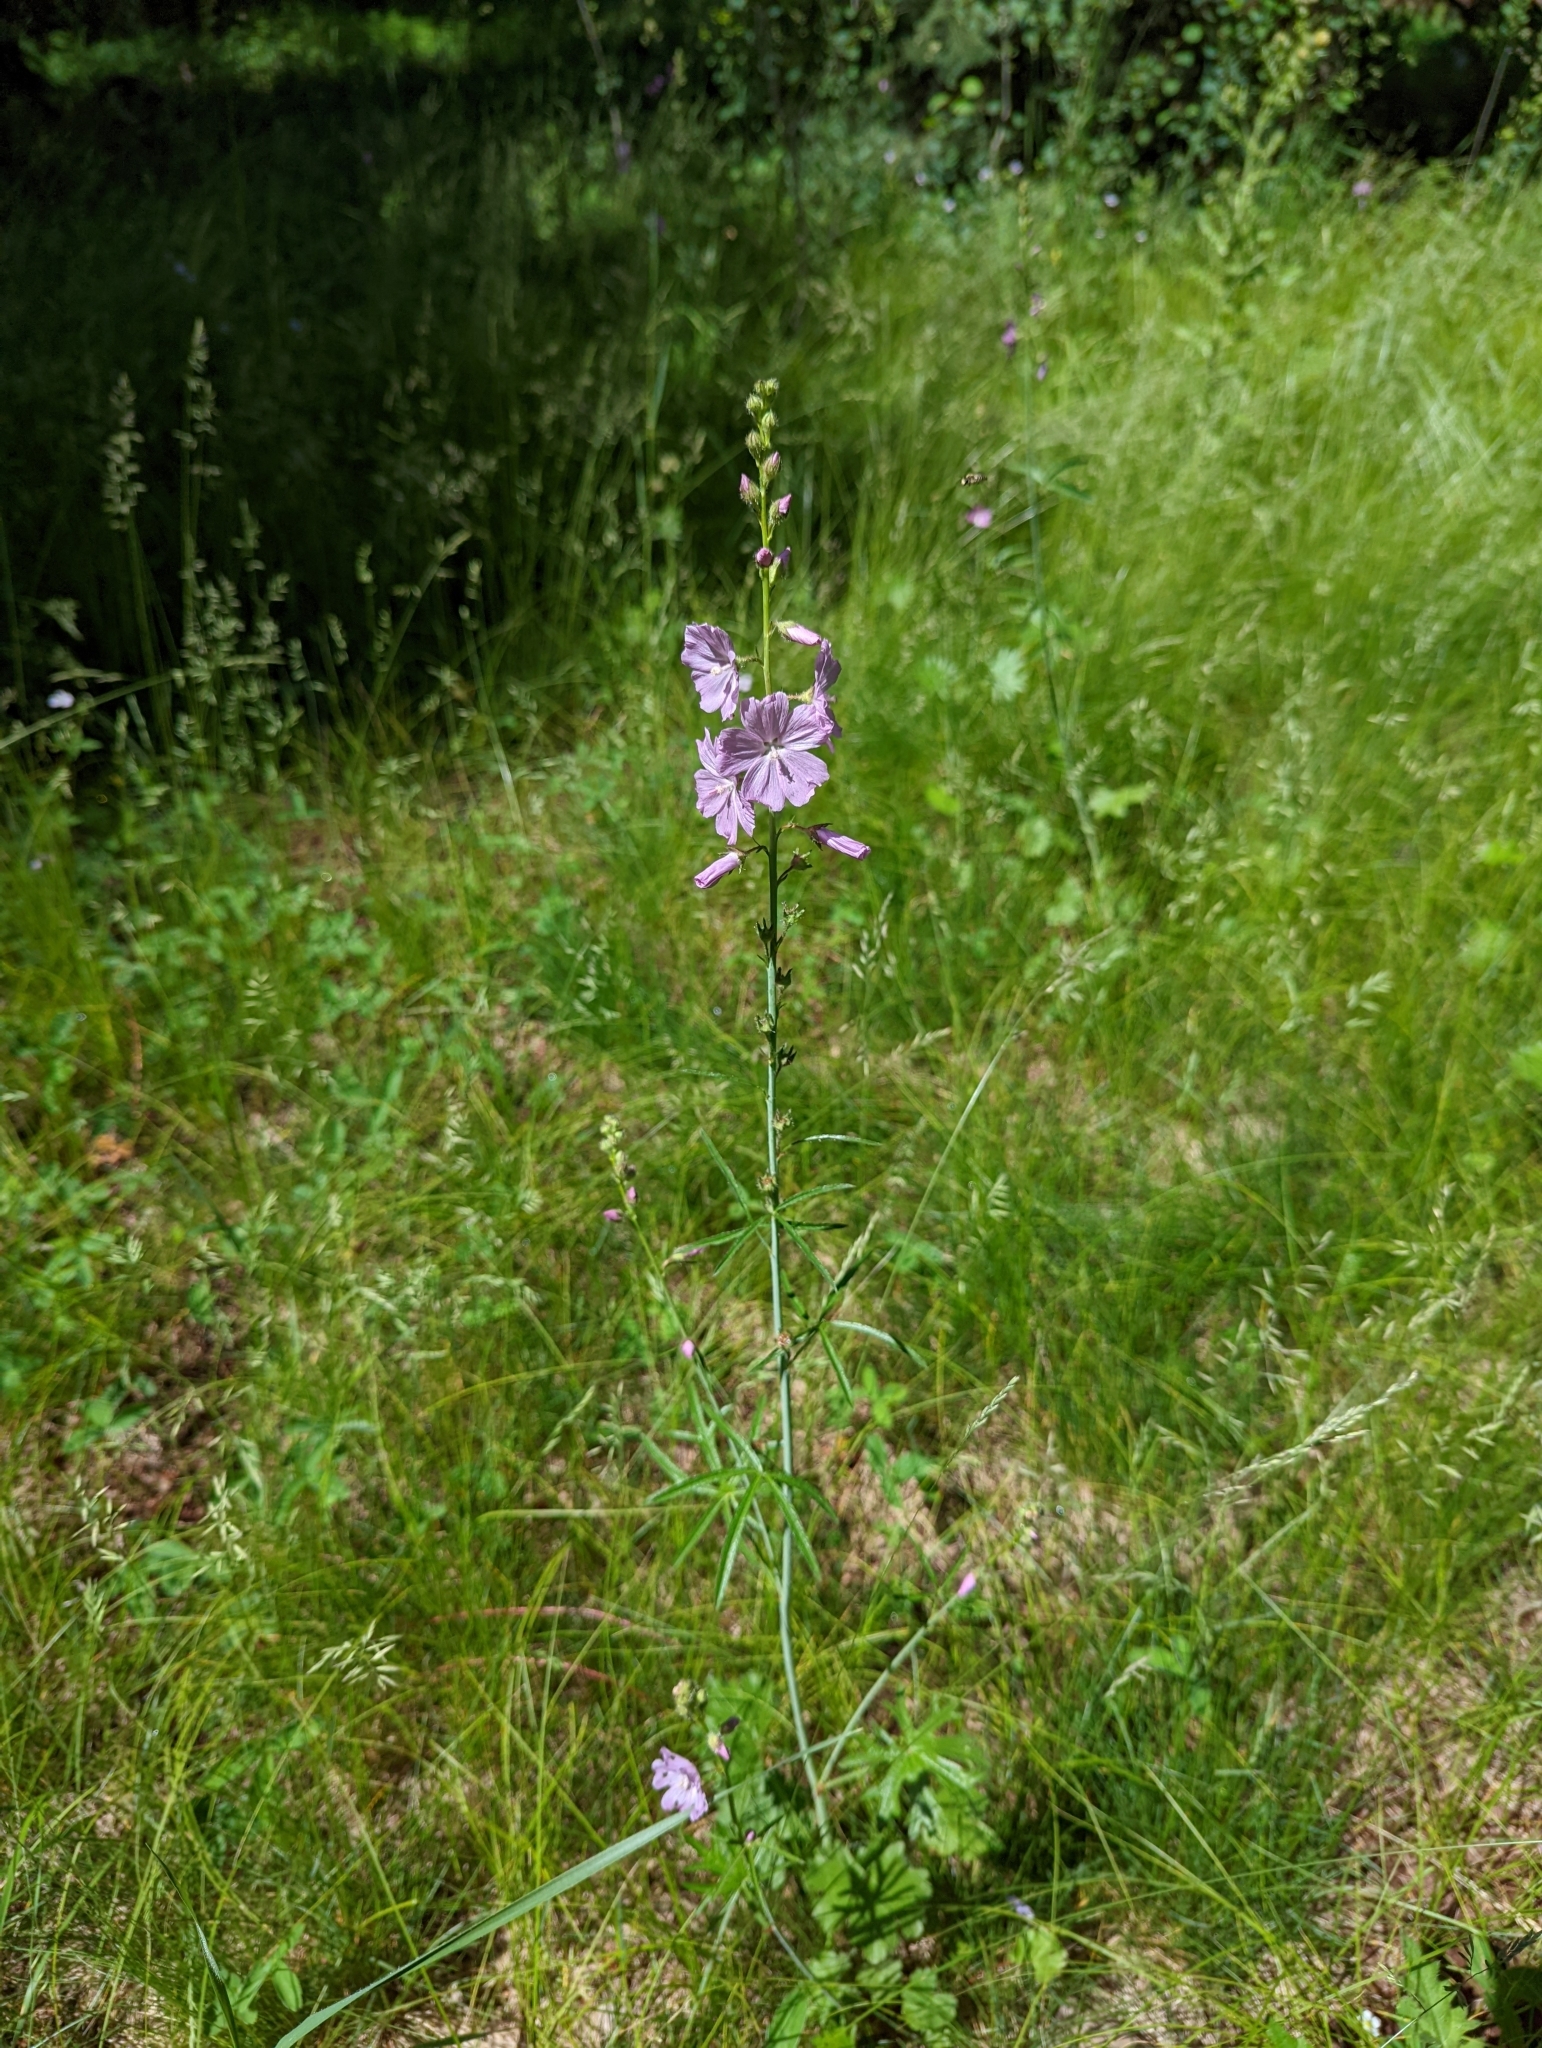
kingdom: Plantae
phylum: Tracheophyta
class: Magnoliopsida
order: Malvales
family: Malvaceae
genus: Sidalcea
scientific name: Sidalcea neomexicana
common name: New mexico checker
